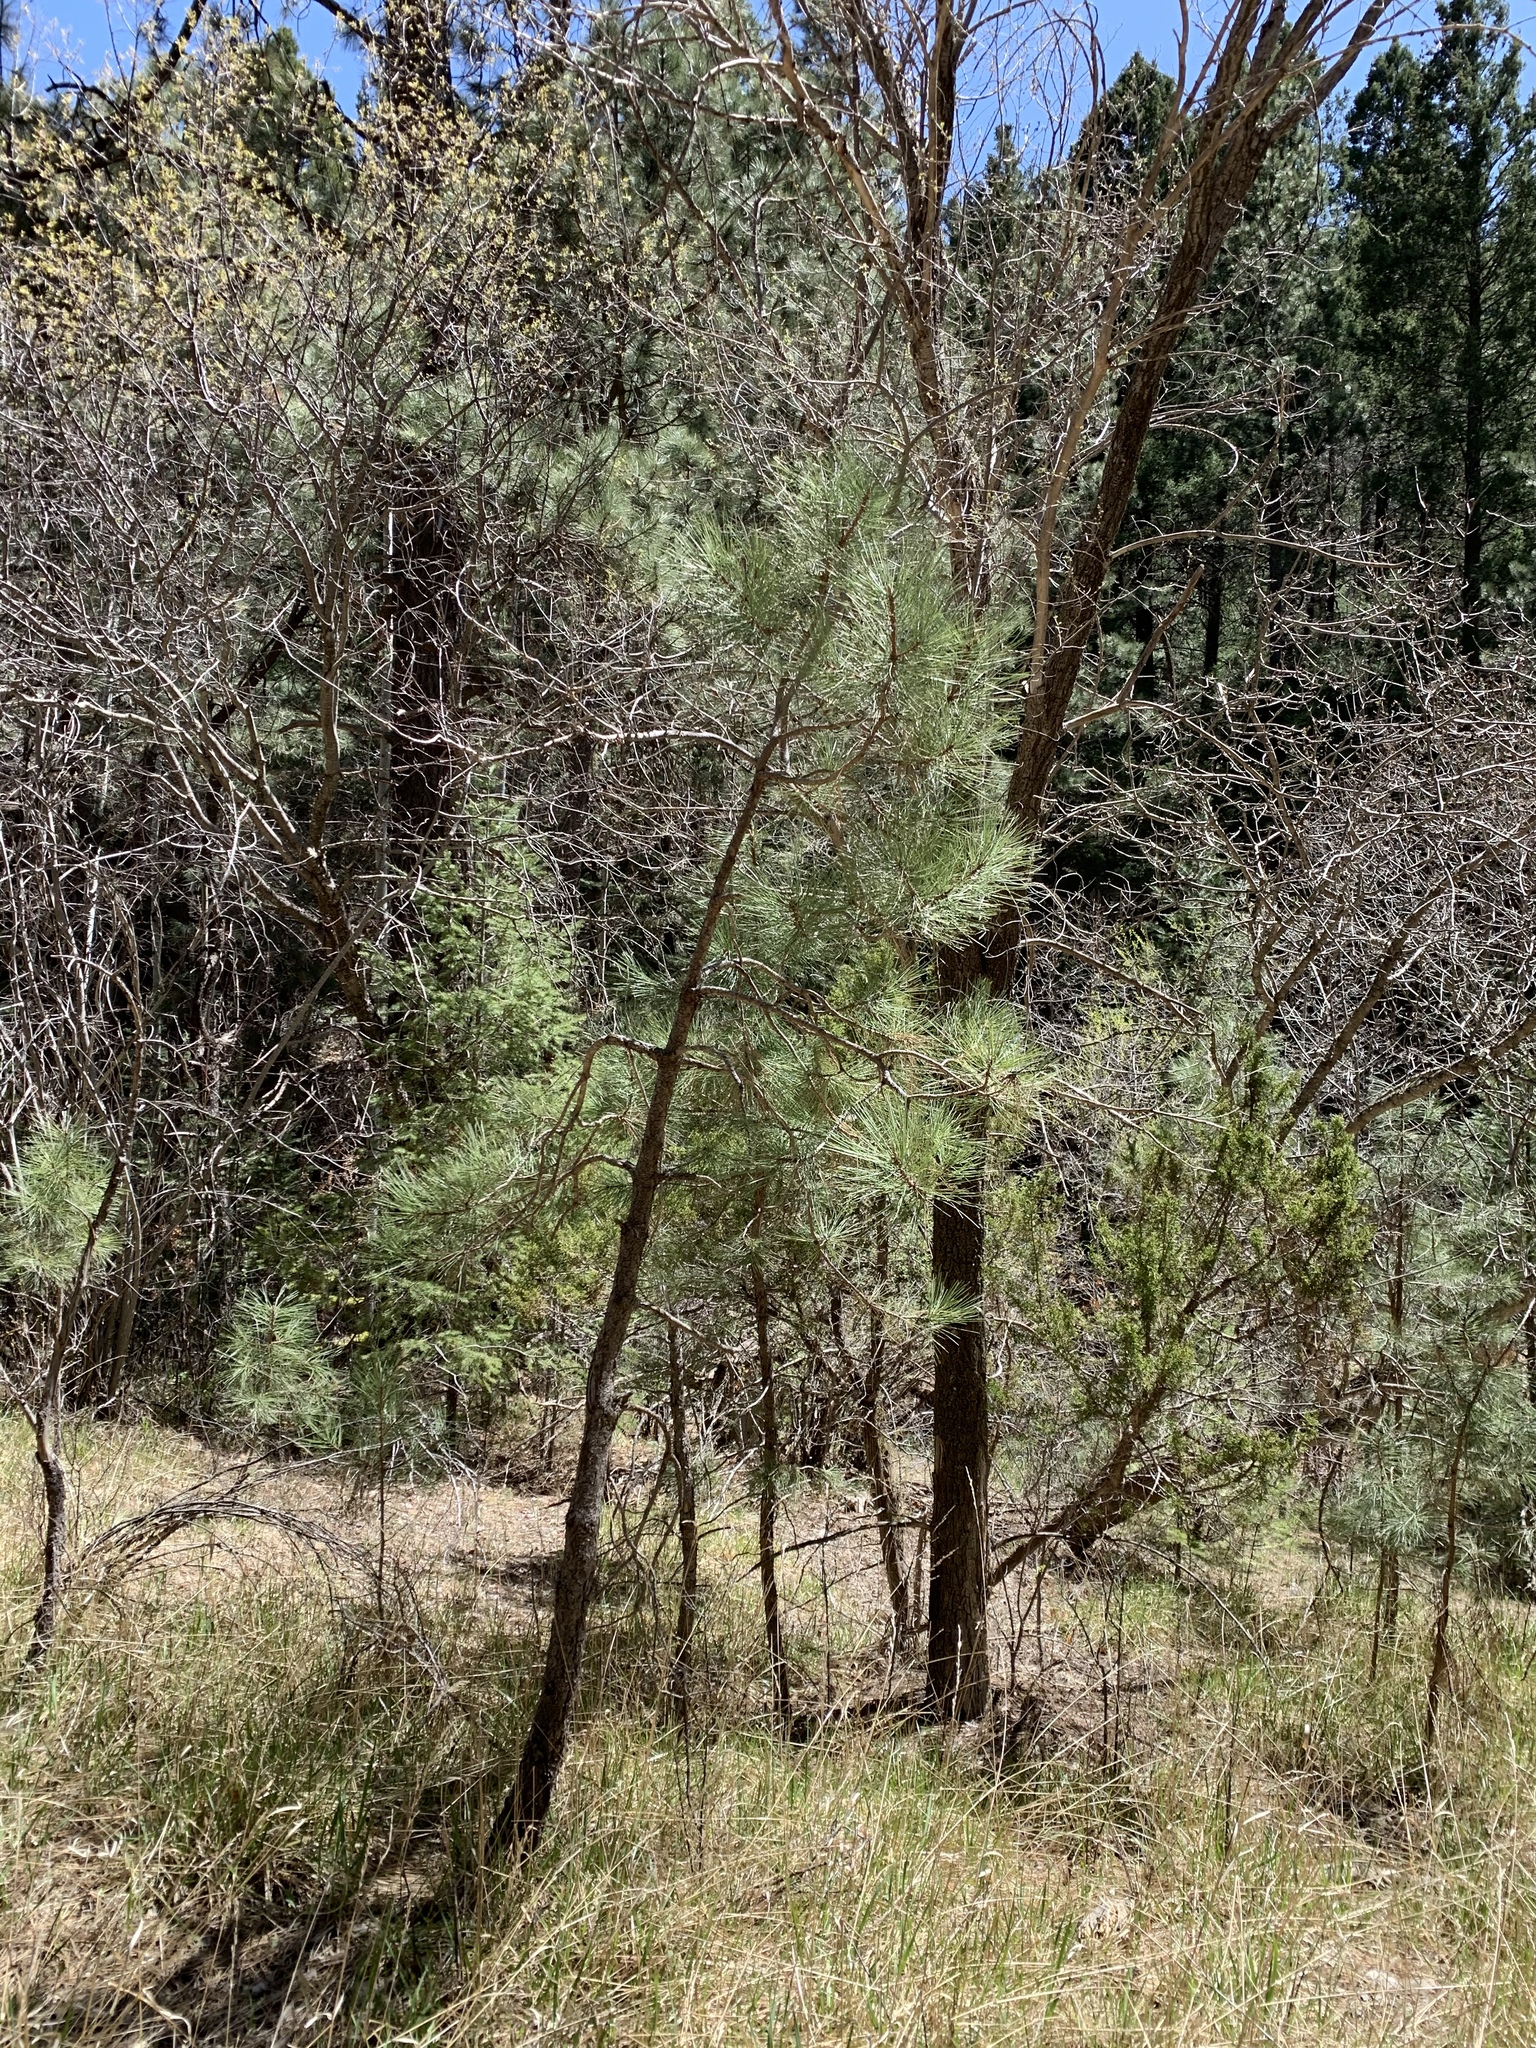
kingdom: Plantae
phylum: Tracheophyta
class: Pinopsida
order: Pinales
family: Pinaceae
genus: Pinus
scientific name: Pinus ponderosa
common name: Western yellow-pine
